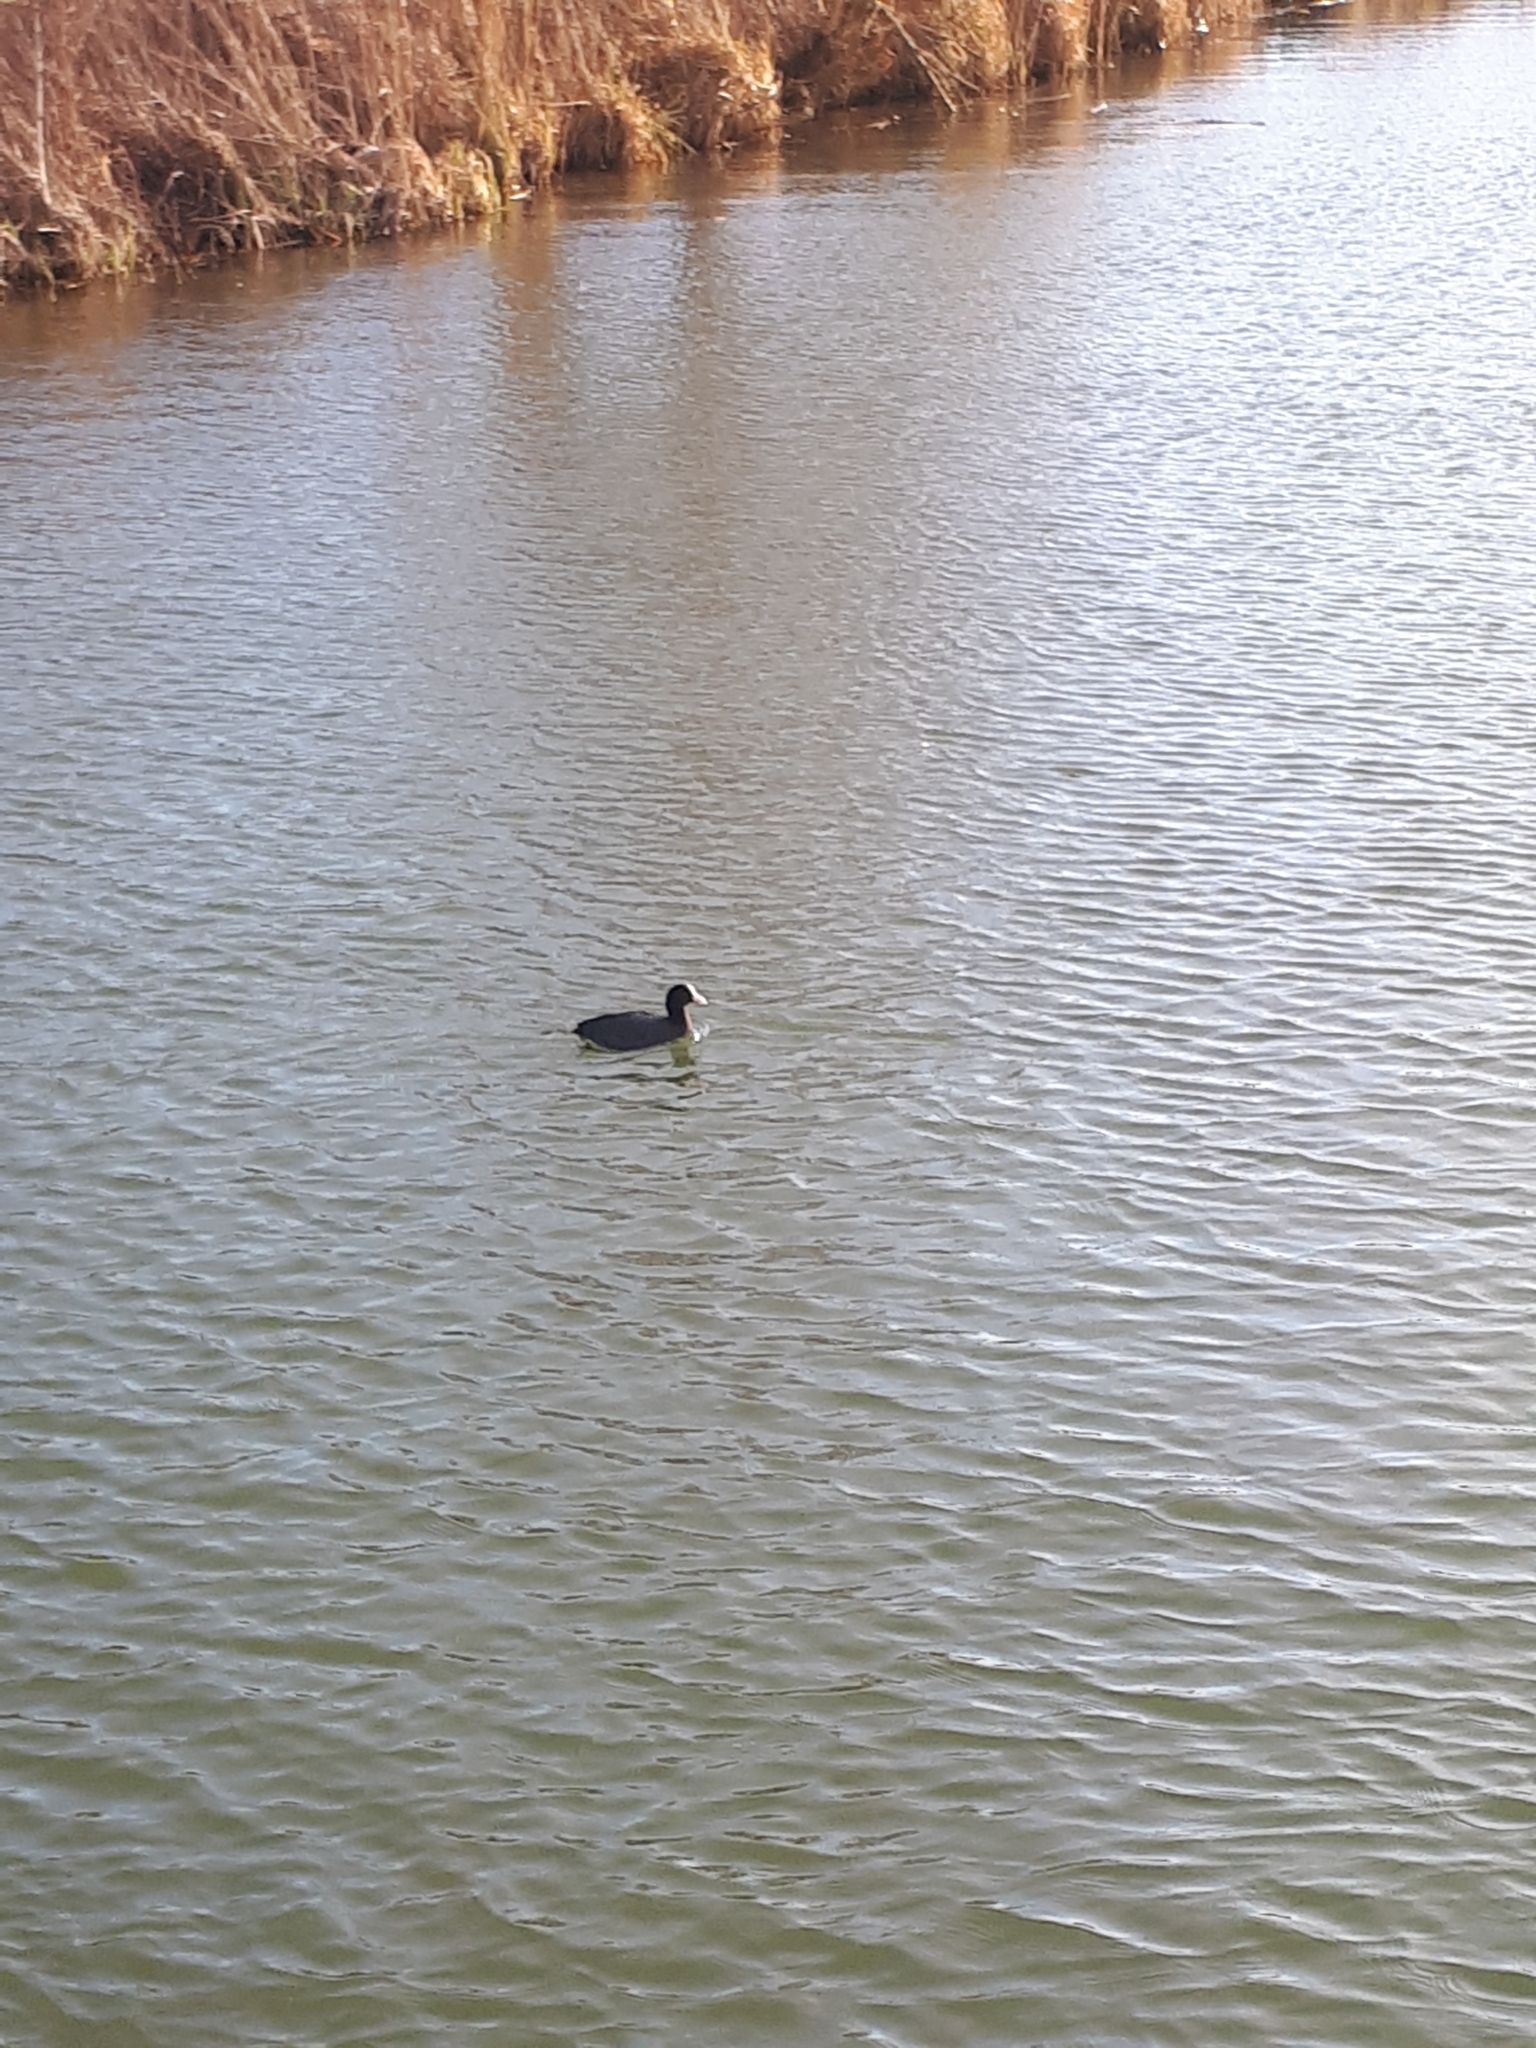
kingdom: Animalia
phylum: Chordata
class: Aves
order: Gruiformes
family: Rallidae
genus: Fulica
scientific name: Fulica atra
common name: Eurasian coot
